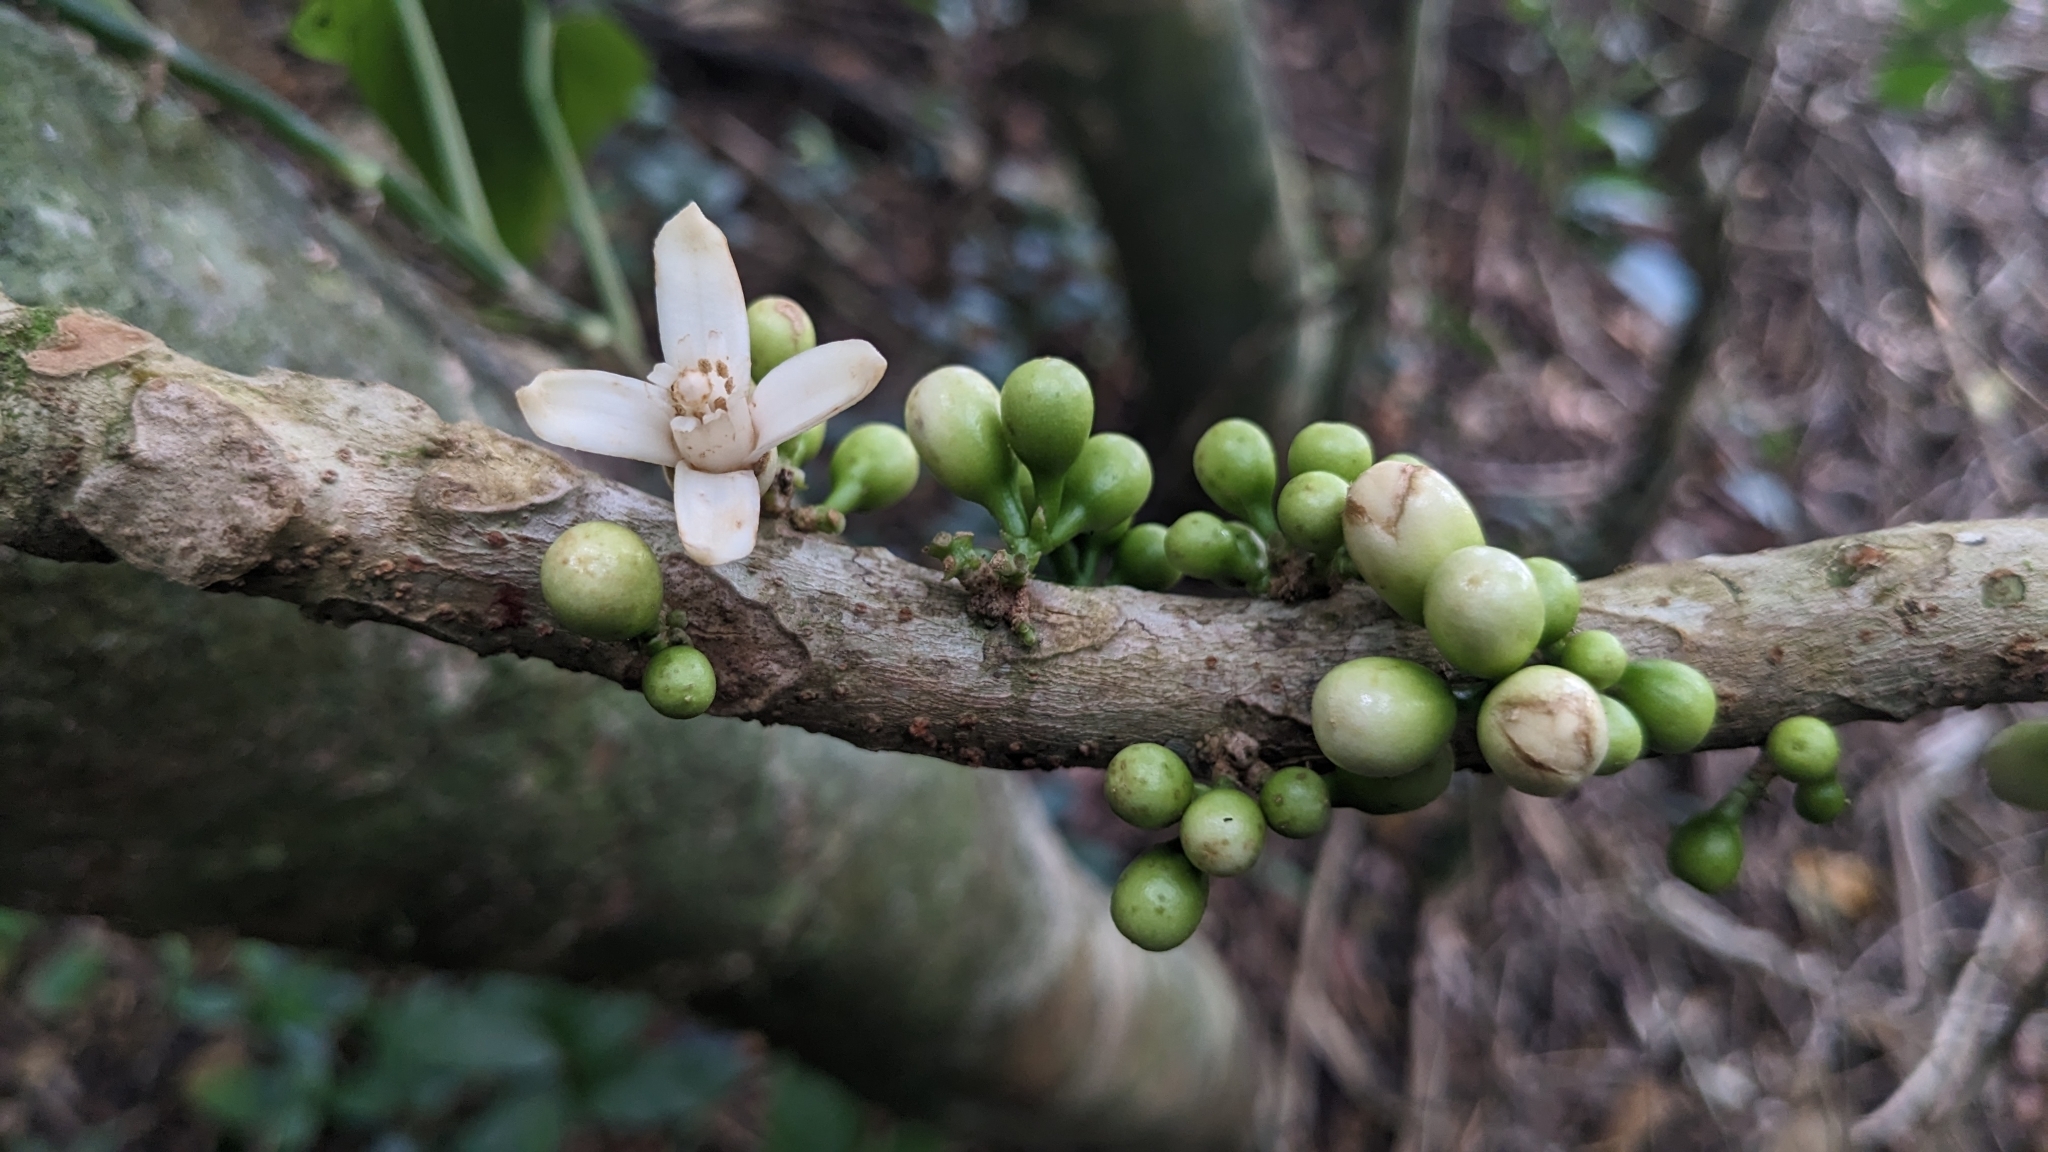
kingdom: Plantae
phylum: Tracheophyta
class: Magnoliopsida
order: Sapindales
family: Meliaceae
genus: Epicharis
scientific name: Epicharis cumingiana
